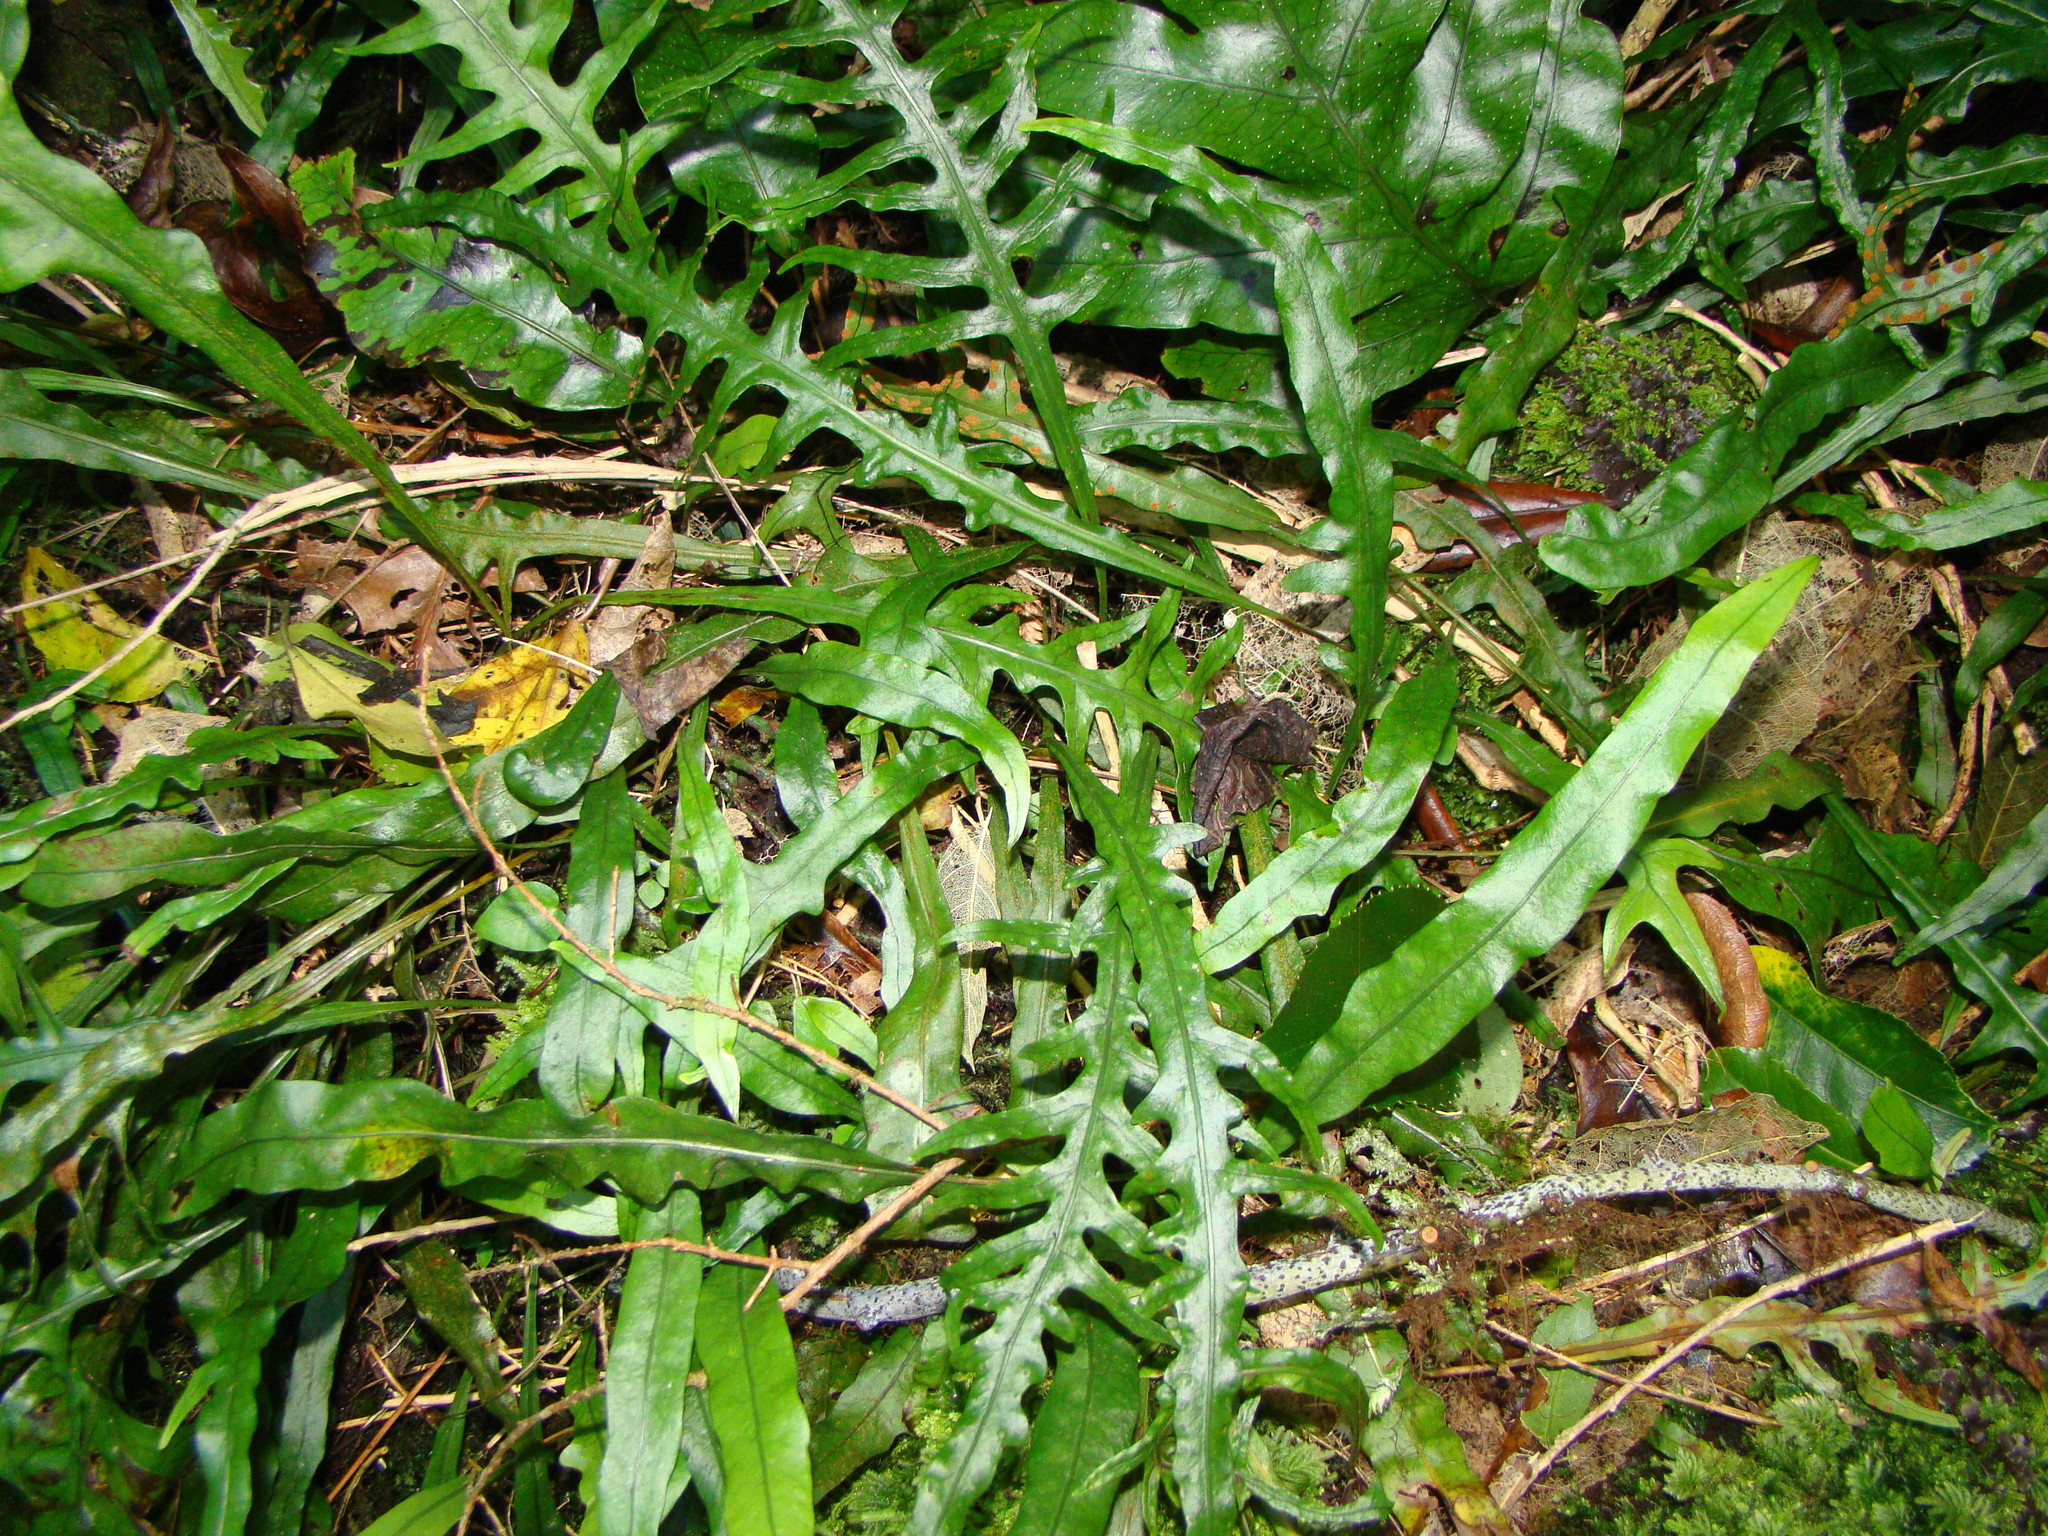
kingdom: Plantae
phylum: Tracheophyta
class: Polypodiopsida
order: Polypodiales
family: Polypodiaceae
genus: Lecanopteris
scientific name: Lecanopteris scandens
